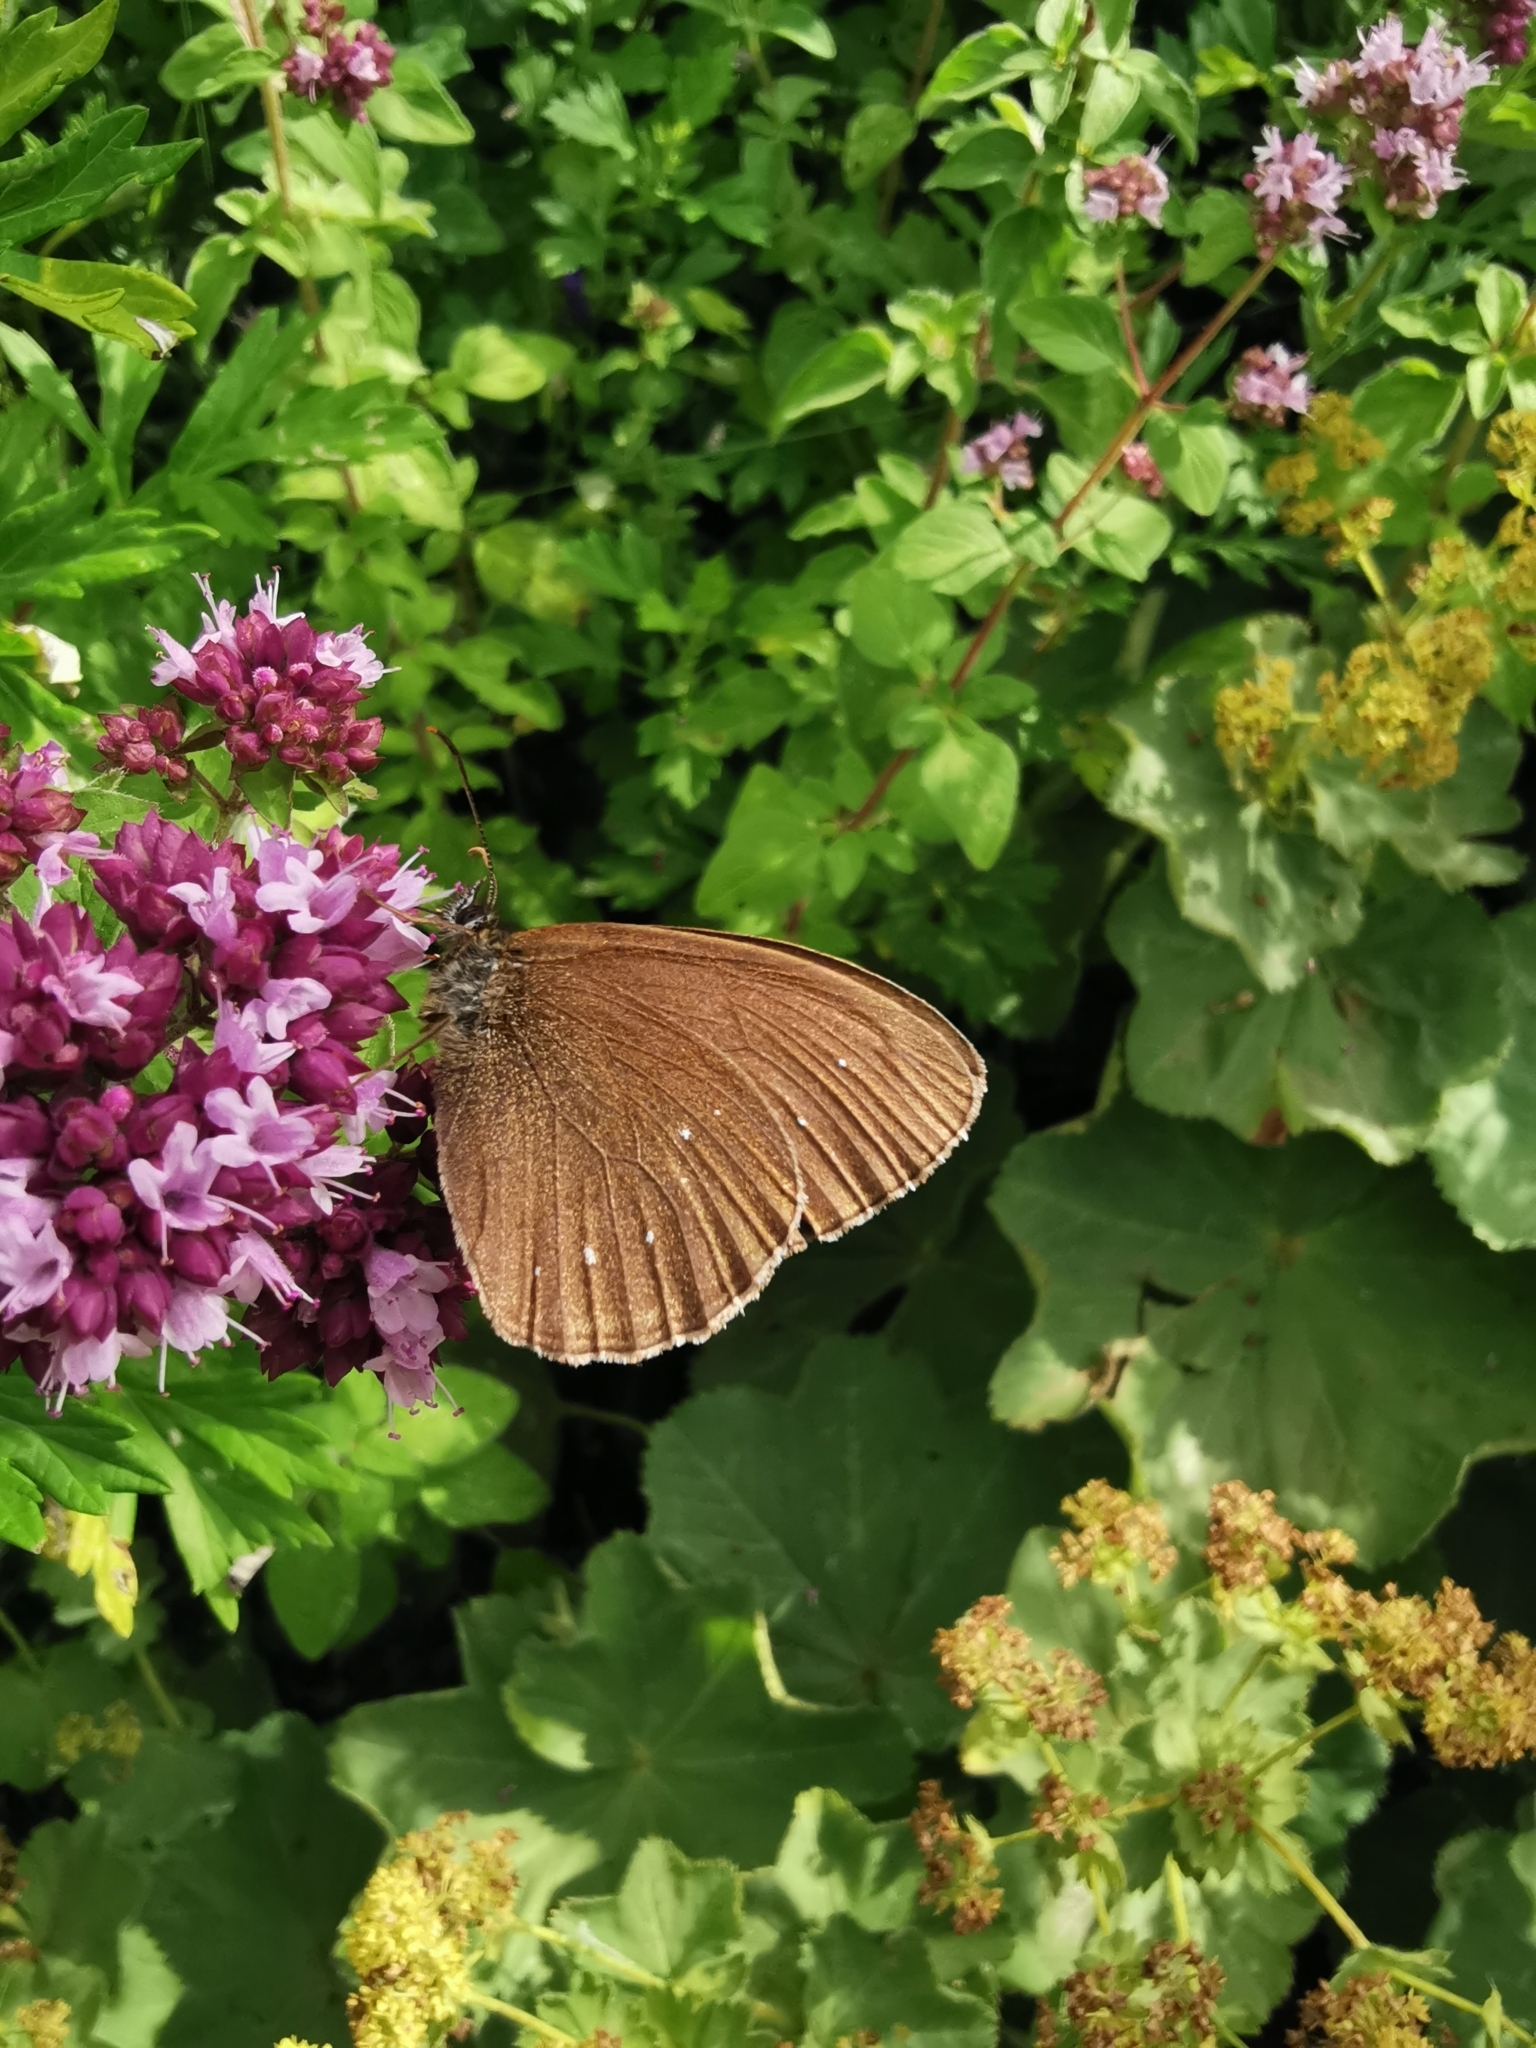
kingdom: Animalia
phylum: Arthropoda
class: Insecta
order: Lepidoptera
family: Nymphalidae
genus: Aphantopus
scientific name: Aphantopus hyperantus
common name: Ringlet
